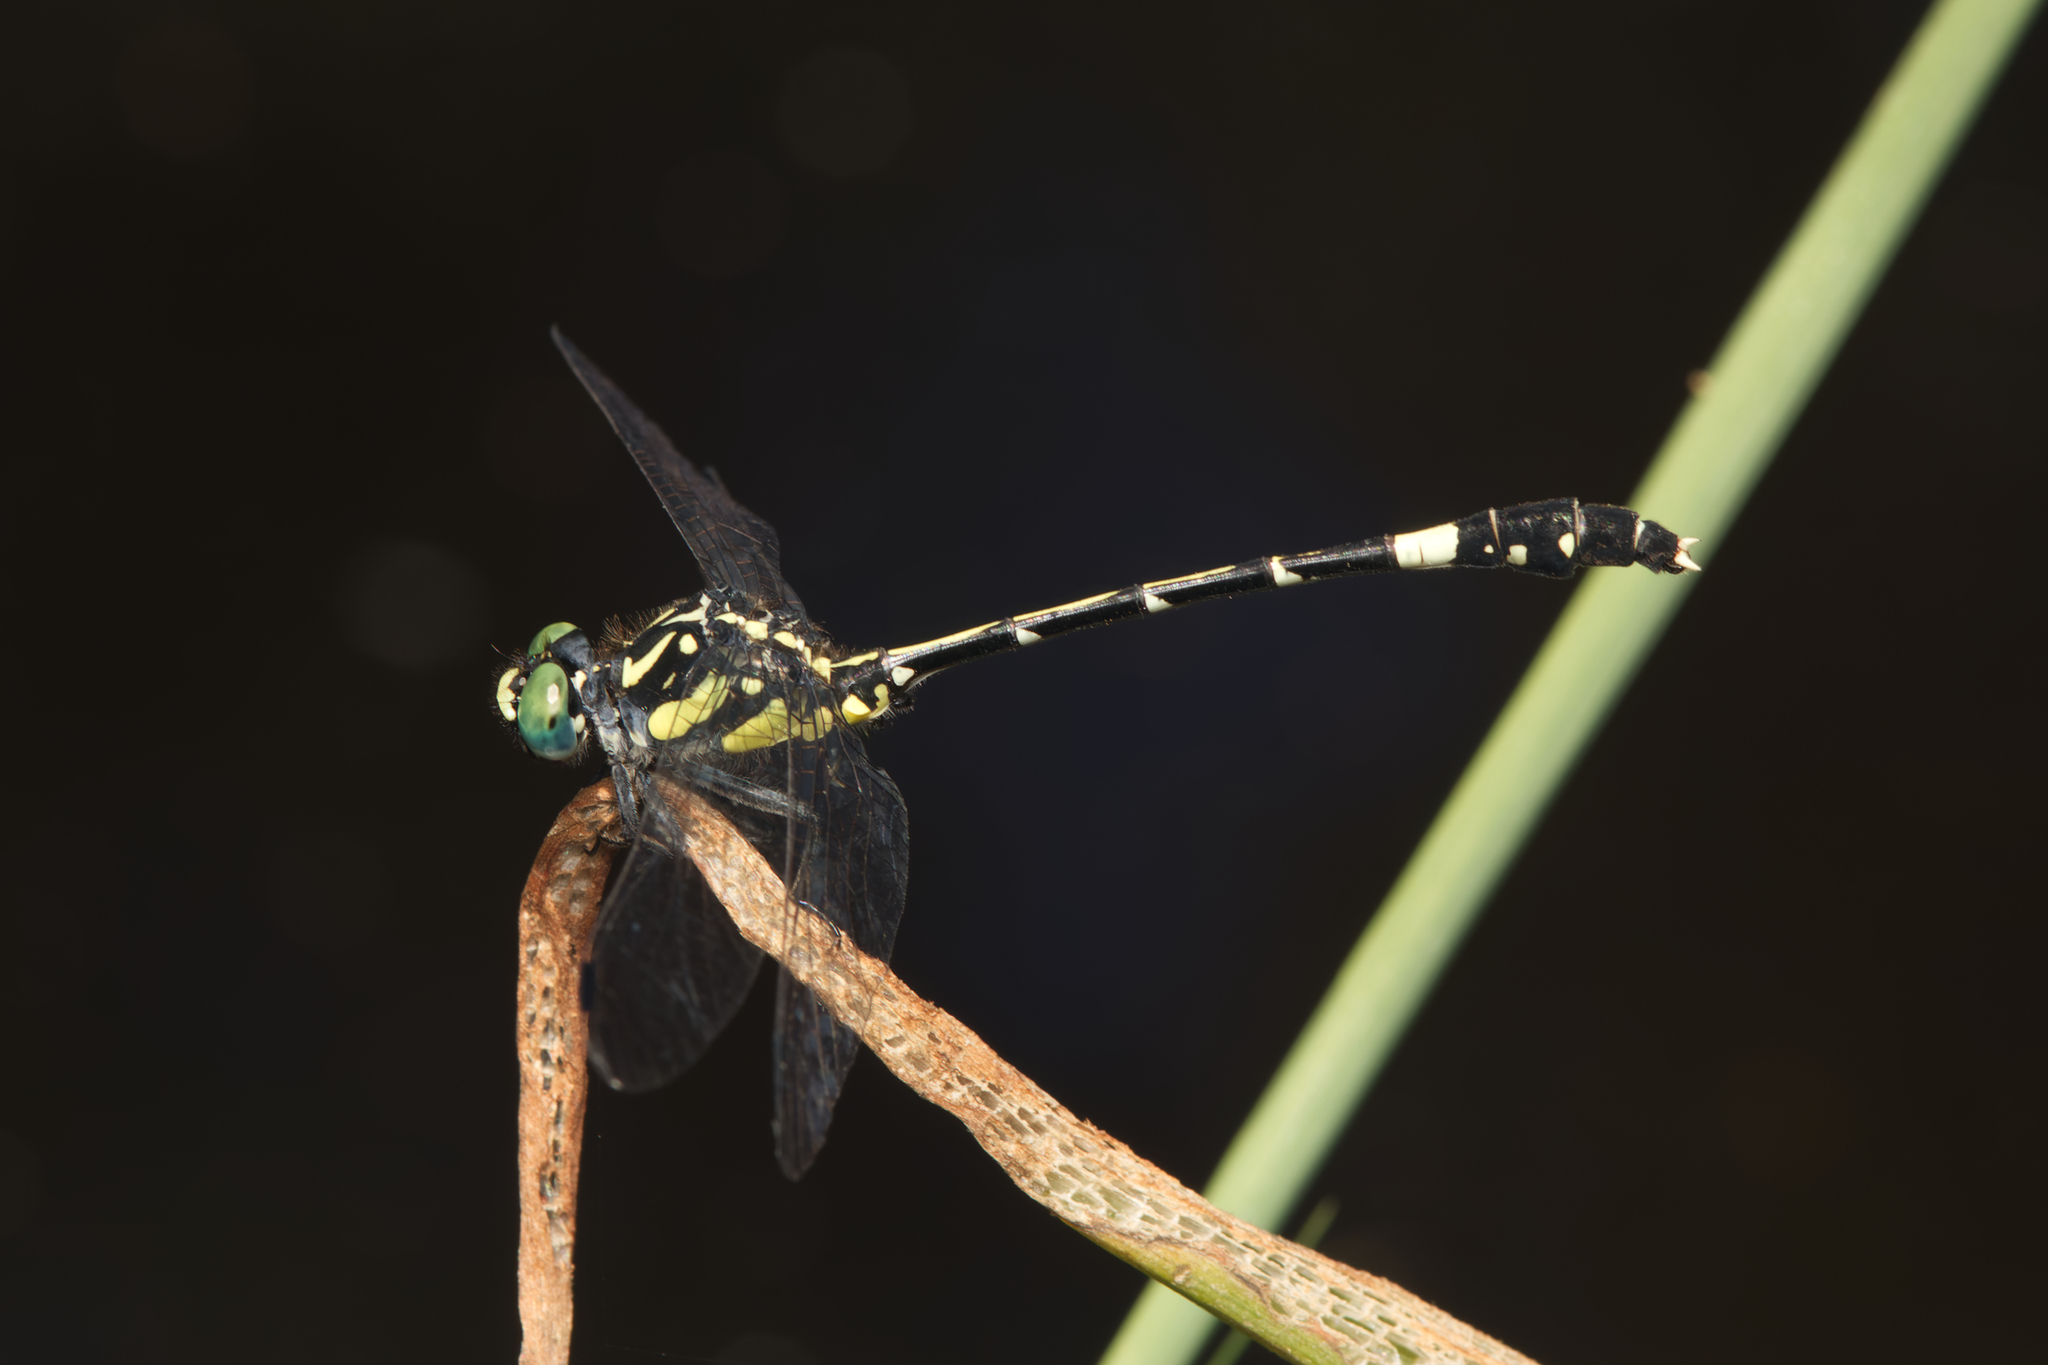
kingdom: Animalia
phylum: Arthropoda
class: Insecta
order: Odonata
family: Gomphidae
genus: Austroepigomphus
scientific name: Austroepigomphus praeruptus
